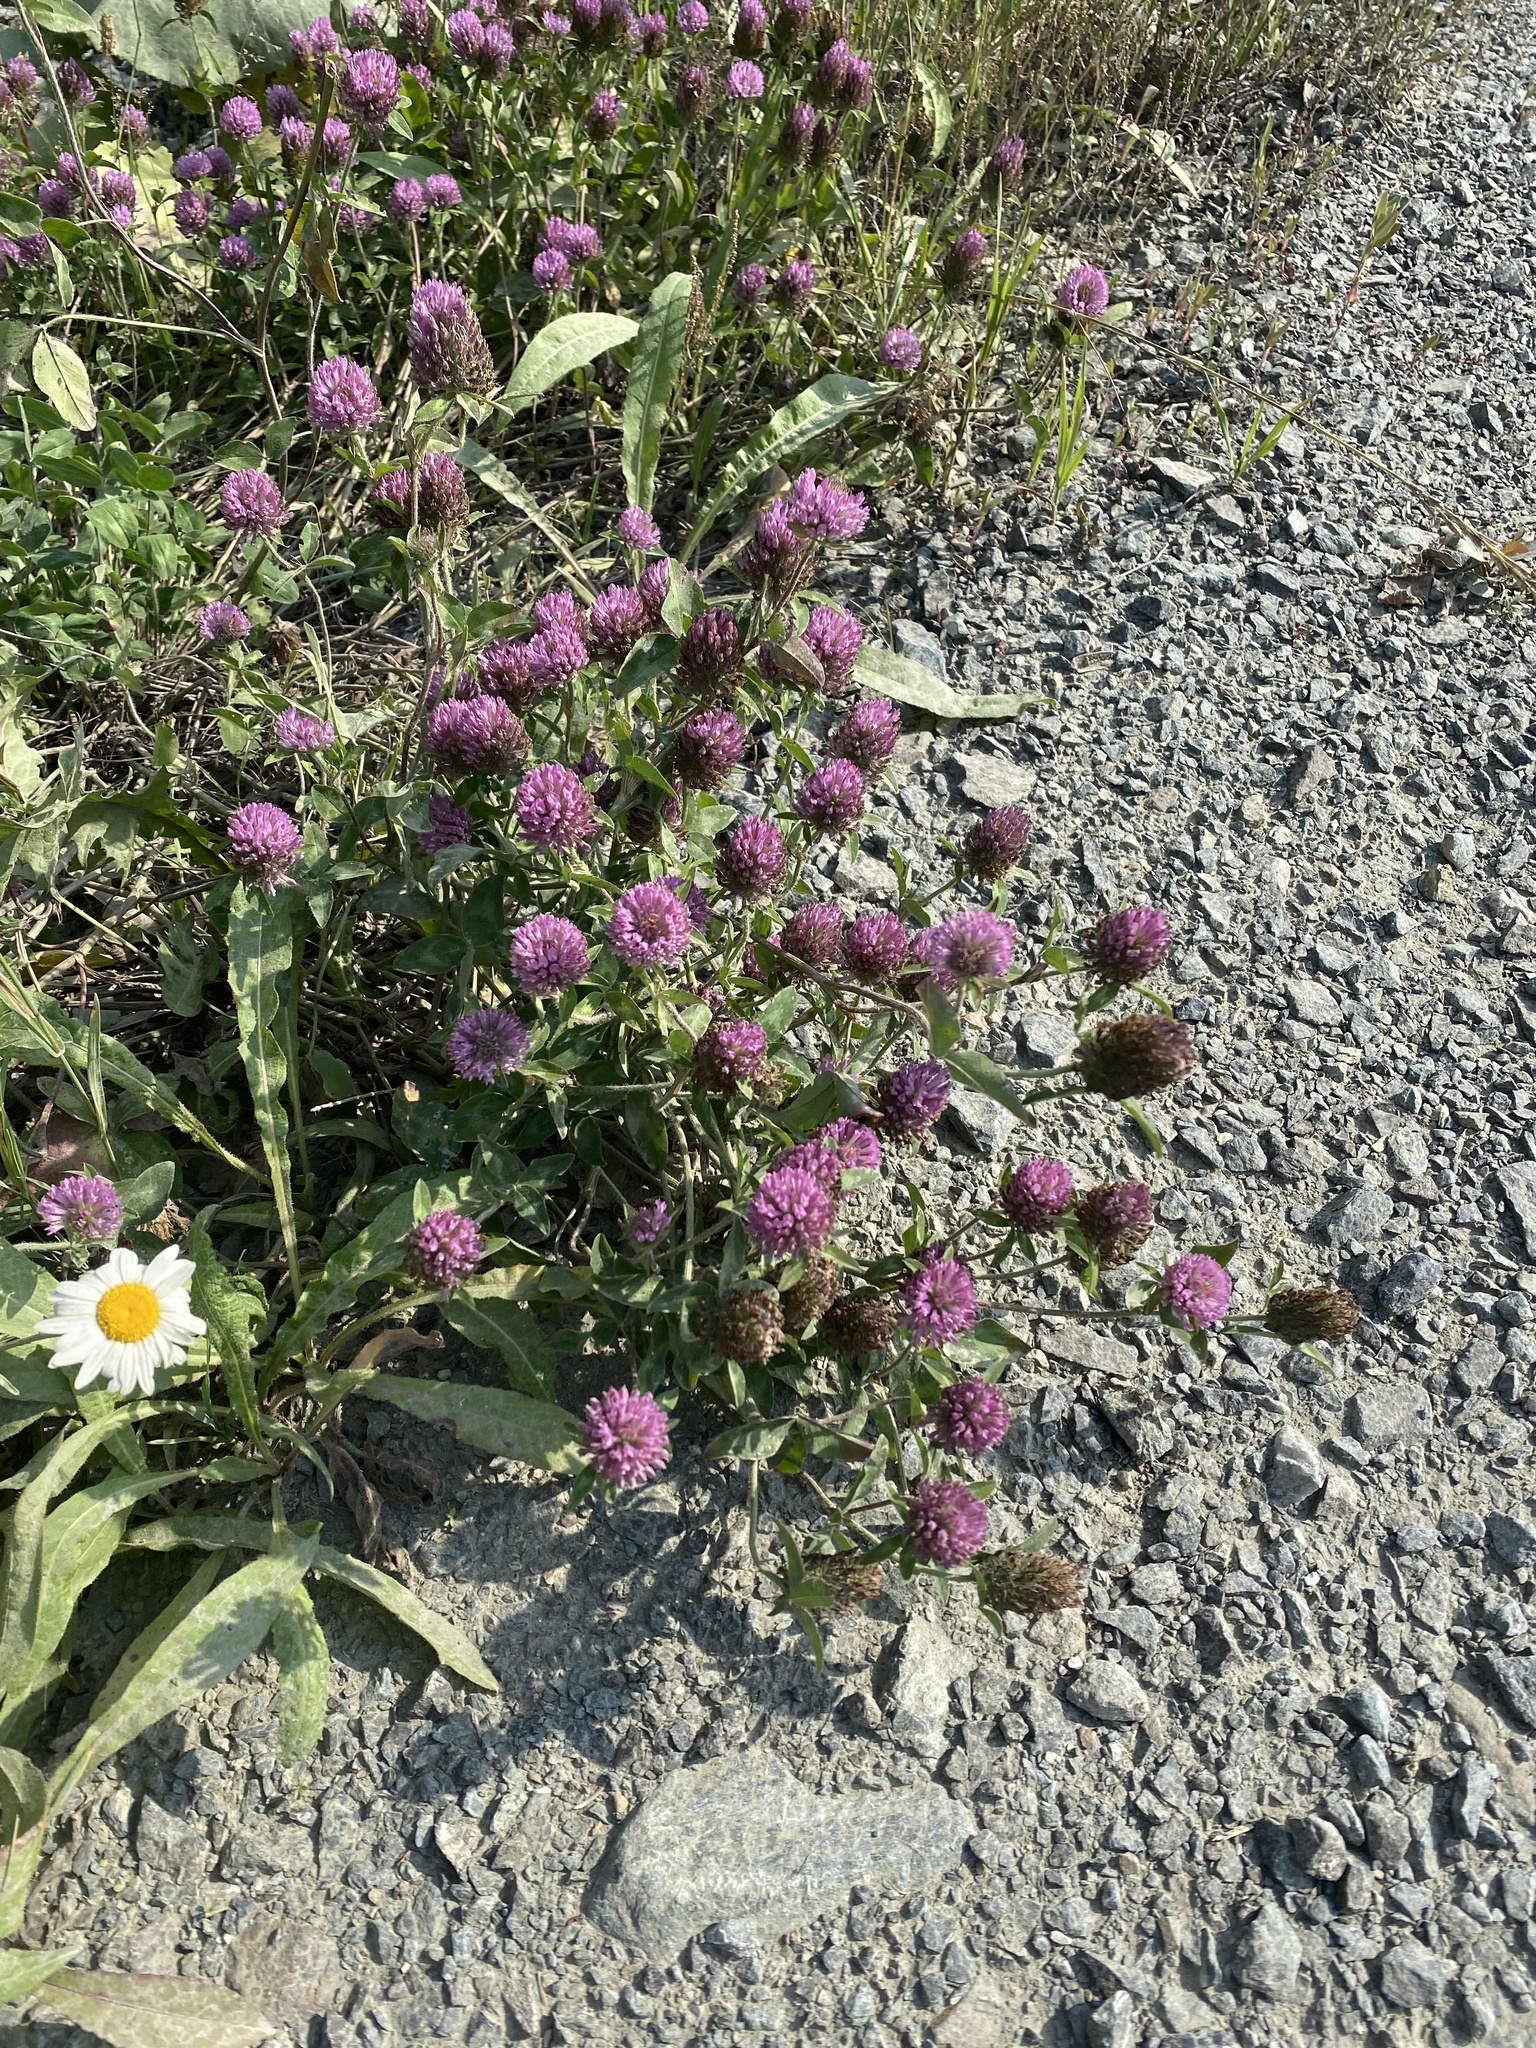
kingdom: Plantae
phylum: Tracheophyta
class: Magnoliopsida
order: Fabales
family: Fabaceae
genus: Trifolium
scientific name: Trifolium pratense
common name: Red clover
